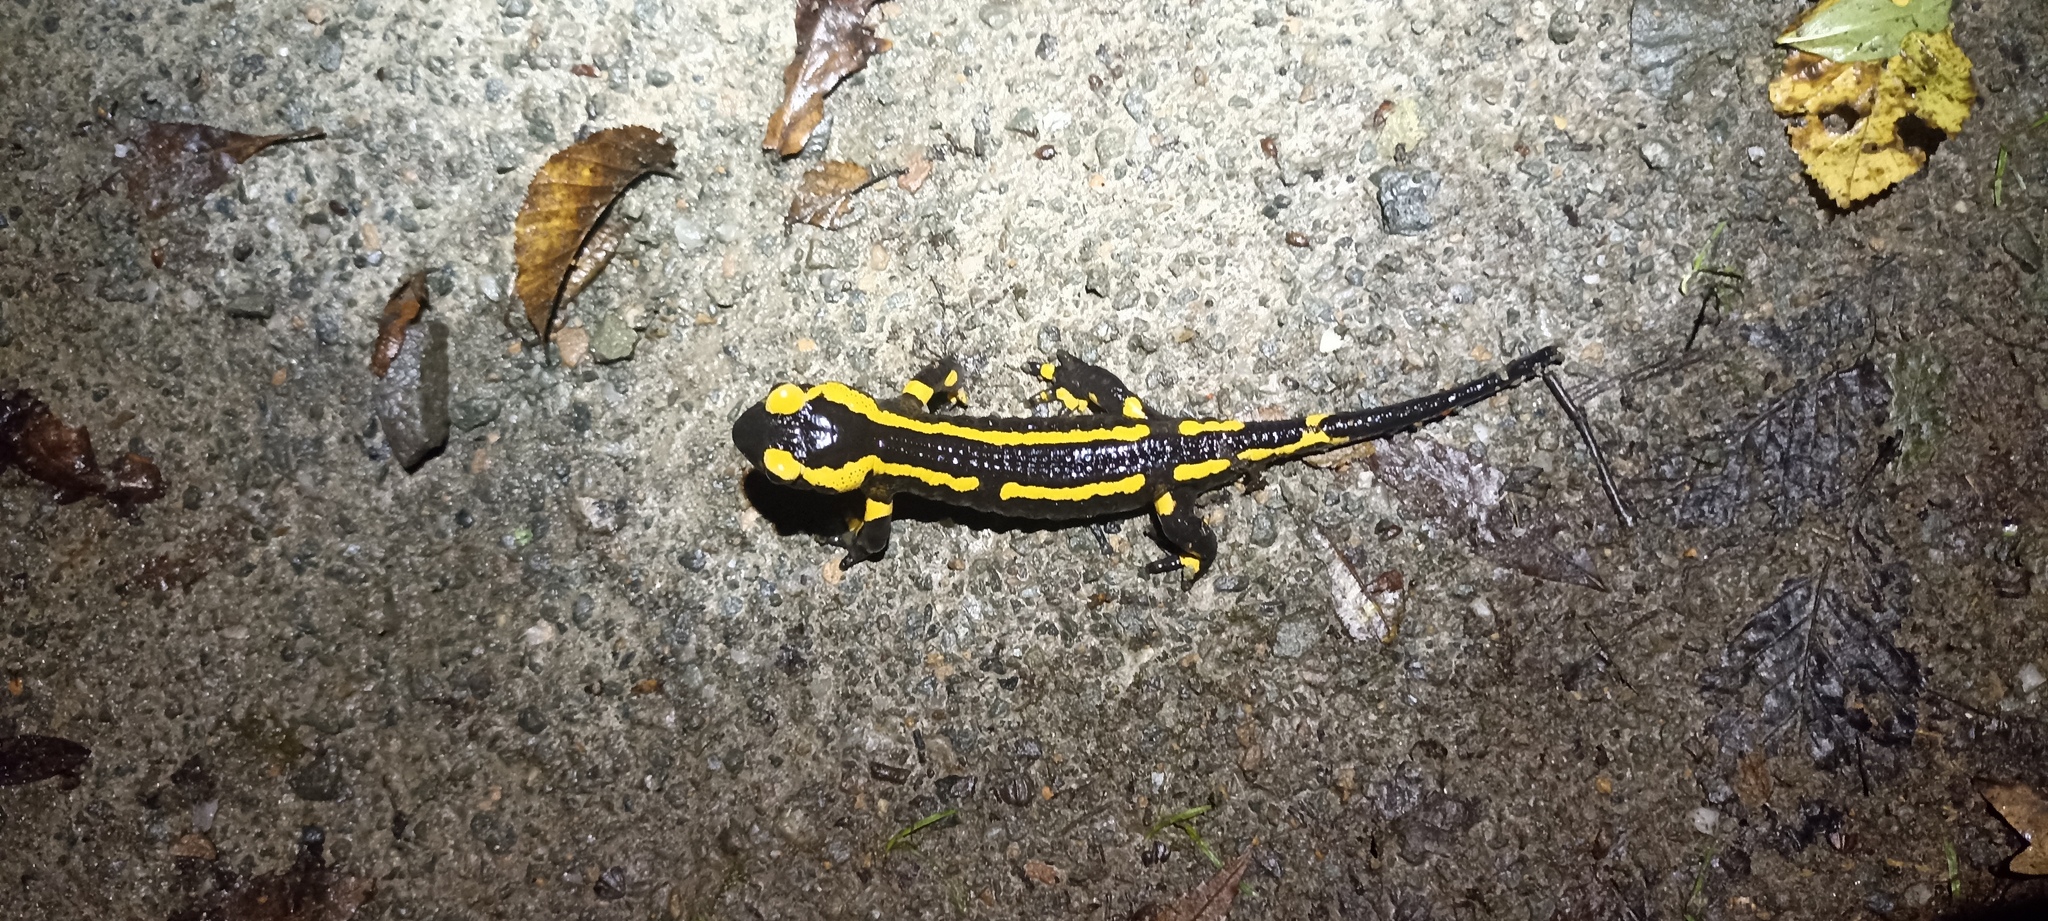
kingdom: Animalia
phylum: Chordata
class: Amphibia
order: Caudata
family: Salamandridae
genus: Salamandra
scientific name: Salamandra salamandra
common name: Fire salamander
